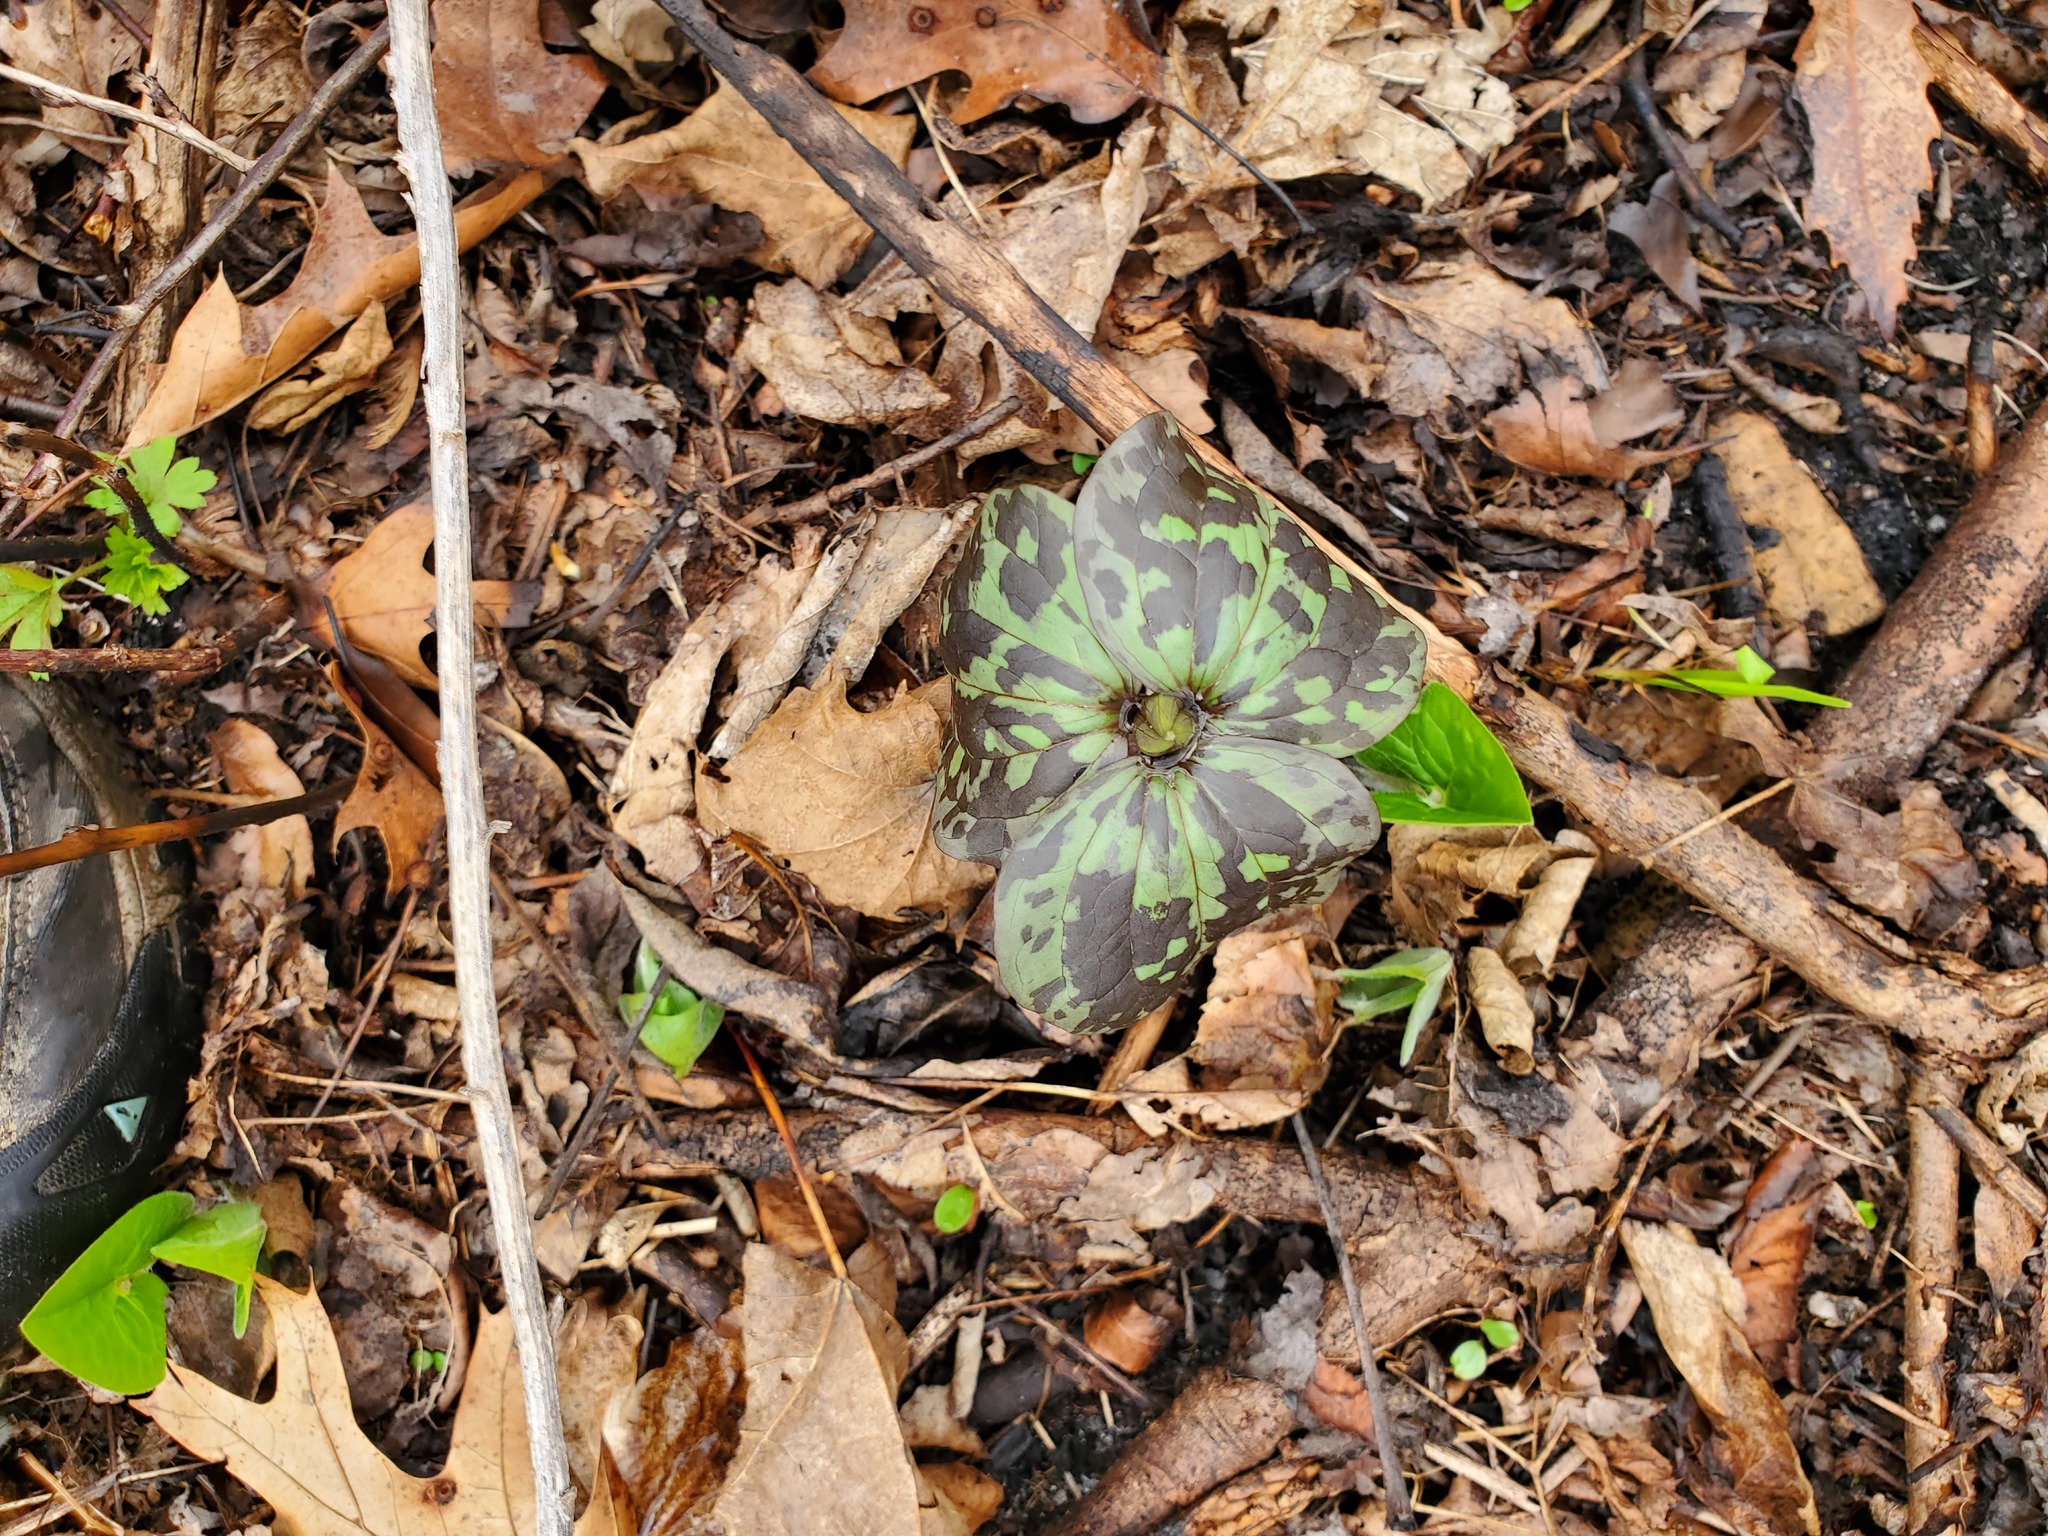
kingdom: Plantae
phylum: Tracheophyta
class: Liliopsida
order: Liliales
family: Melanthiaceae
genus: Trillium
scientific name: Trillium recurvatum
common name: Bloody butcher
